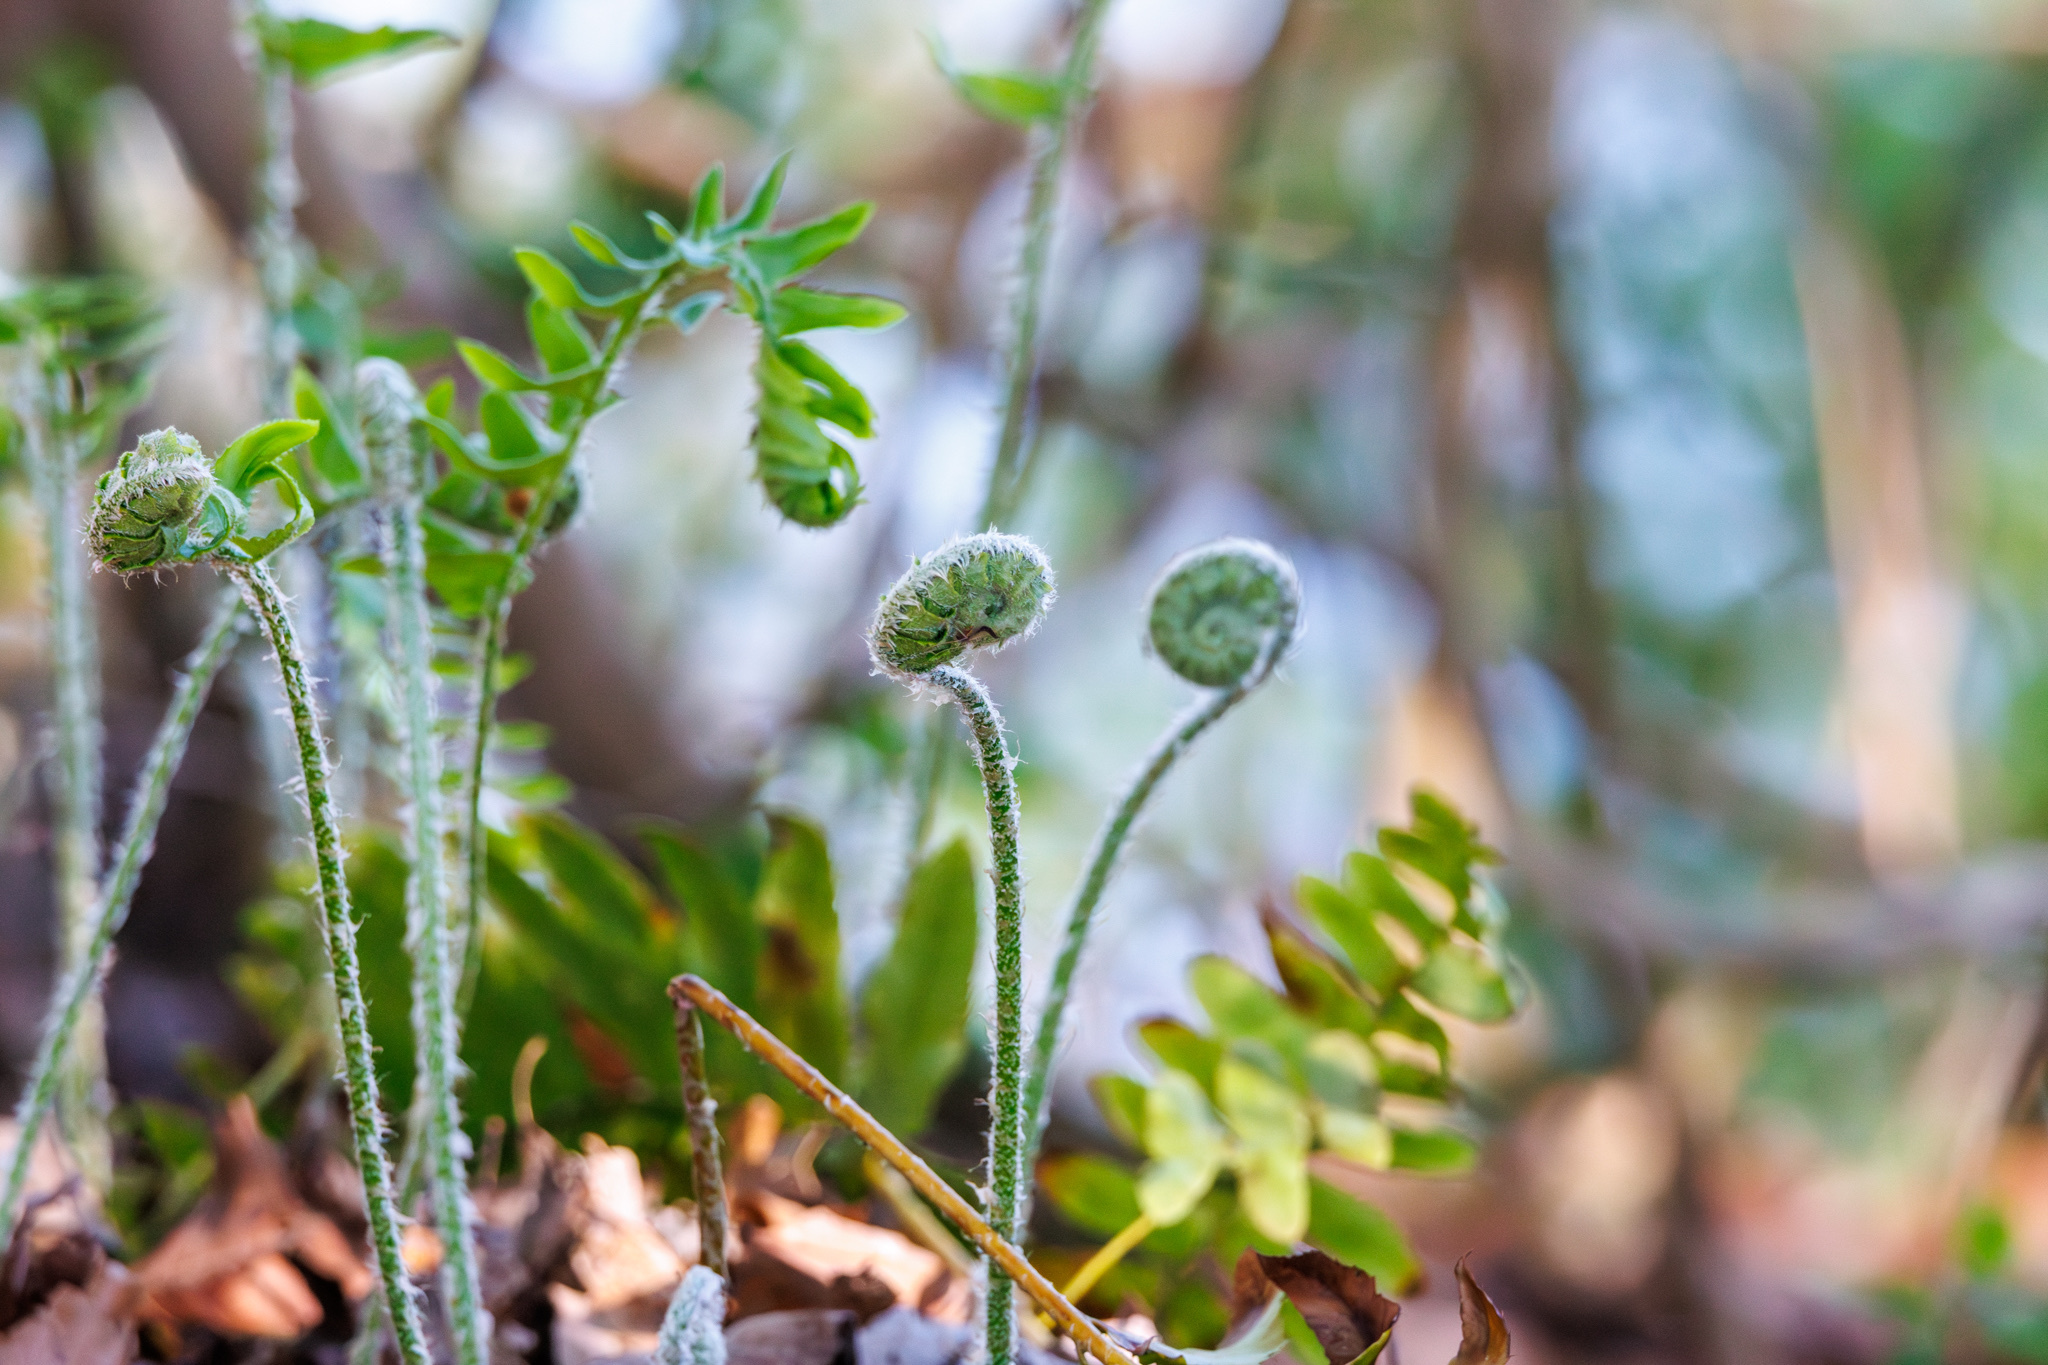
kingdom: Plantae
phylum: Tracheophyta
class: Polypodiopsida
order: Polypodiales
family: Dryopteridaceae
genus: Polystichum
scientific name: Polystichum acrostichoides
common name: Christmas fern
